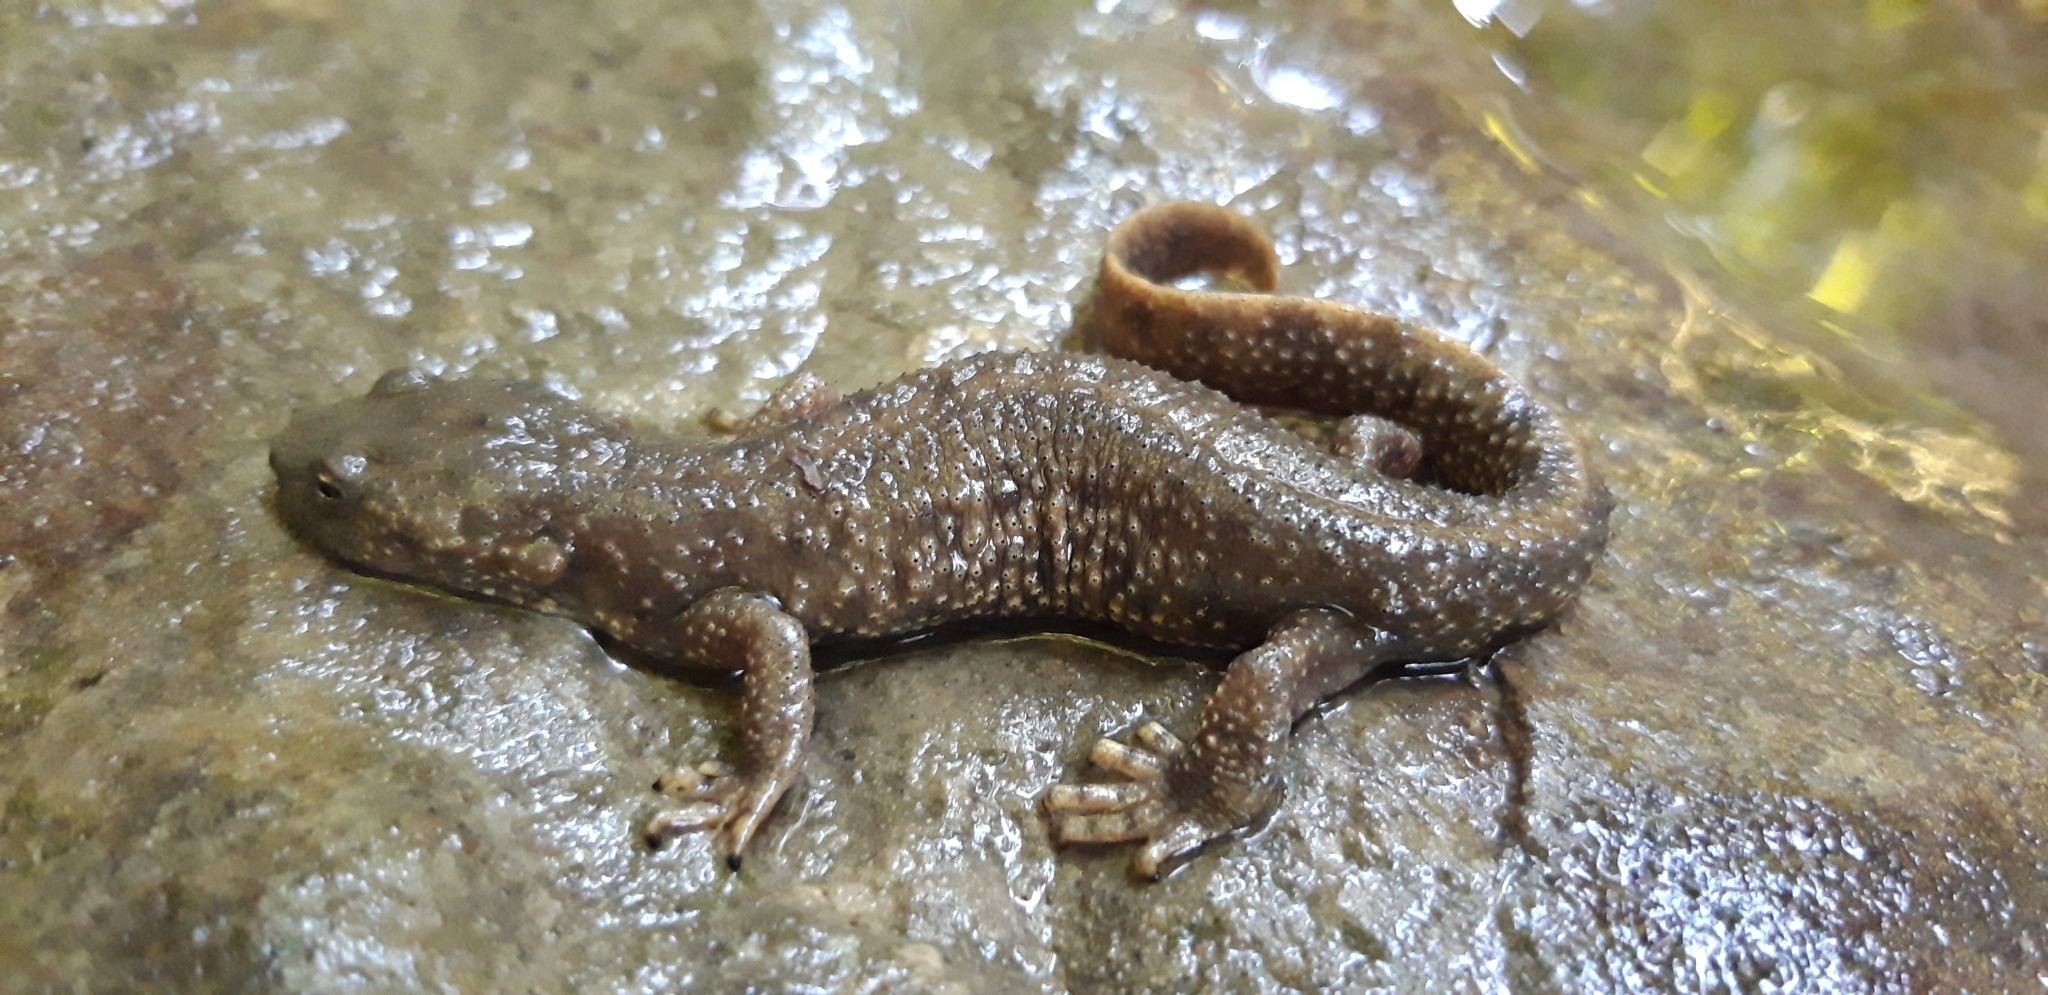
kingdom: Animalia
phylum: Chordata
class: Amphibia
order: Caudata
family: Salamandridae
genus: Calotriton
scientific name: Calotriton asper
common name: Pyrenean brook salamander
